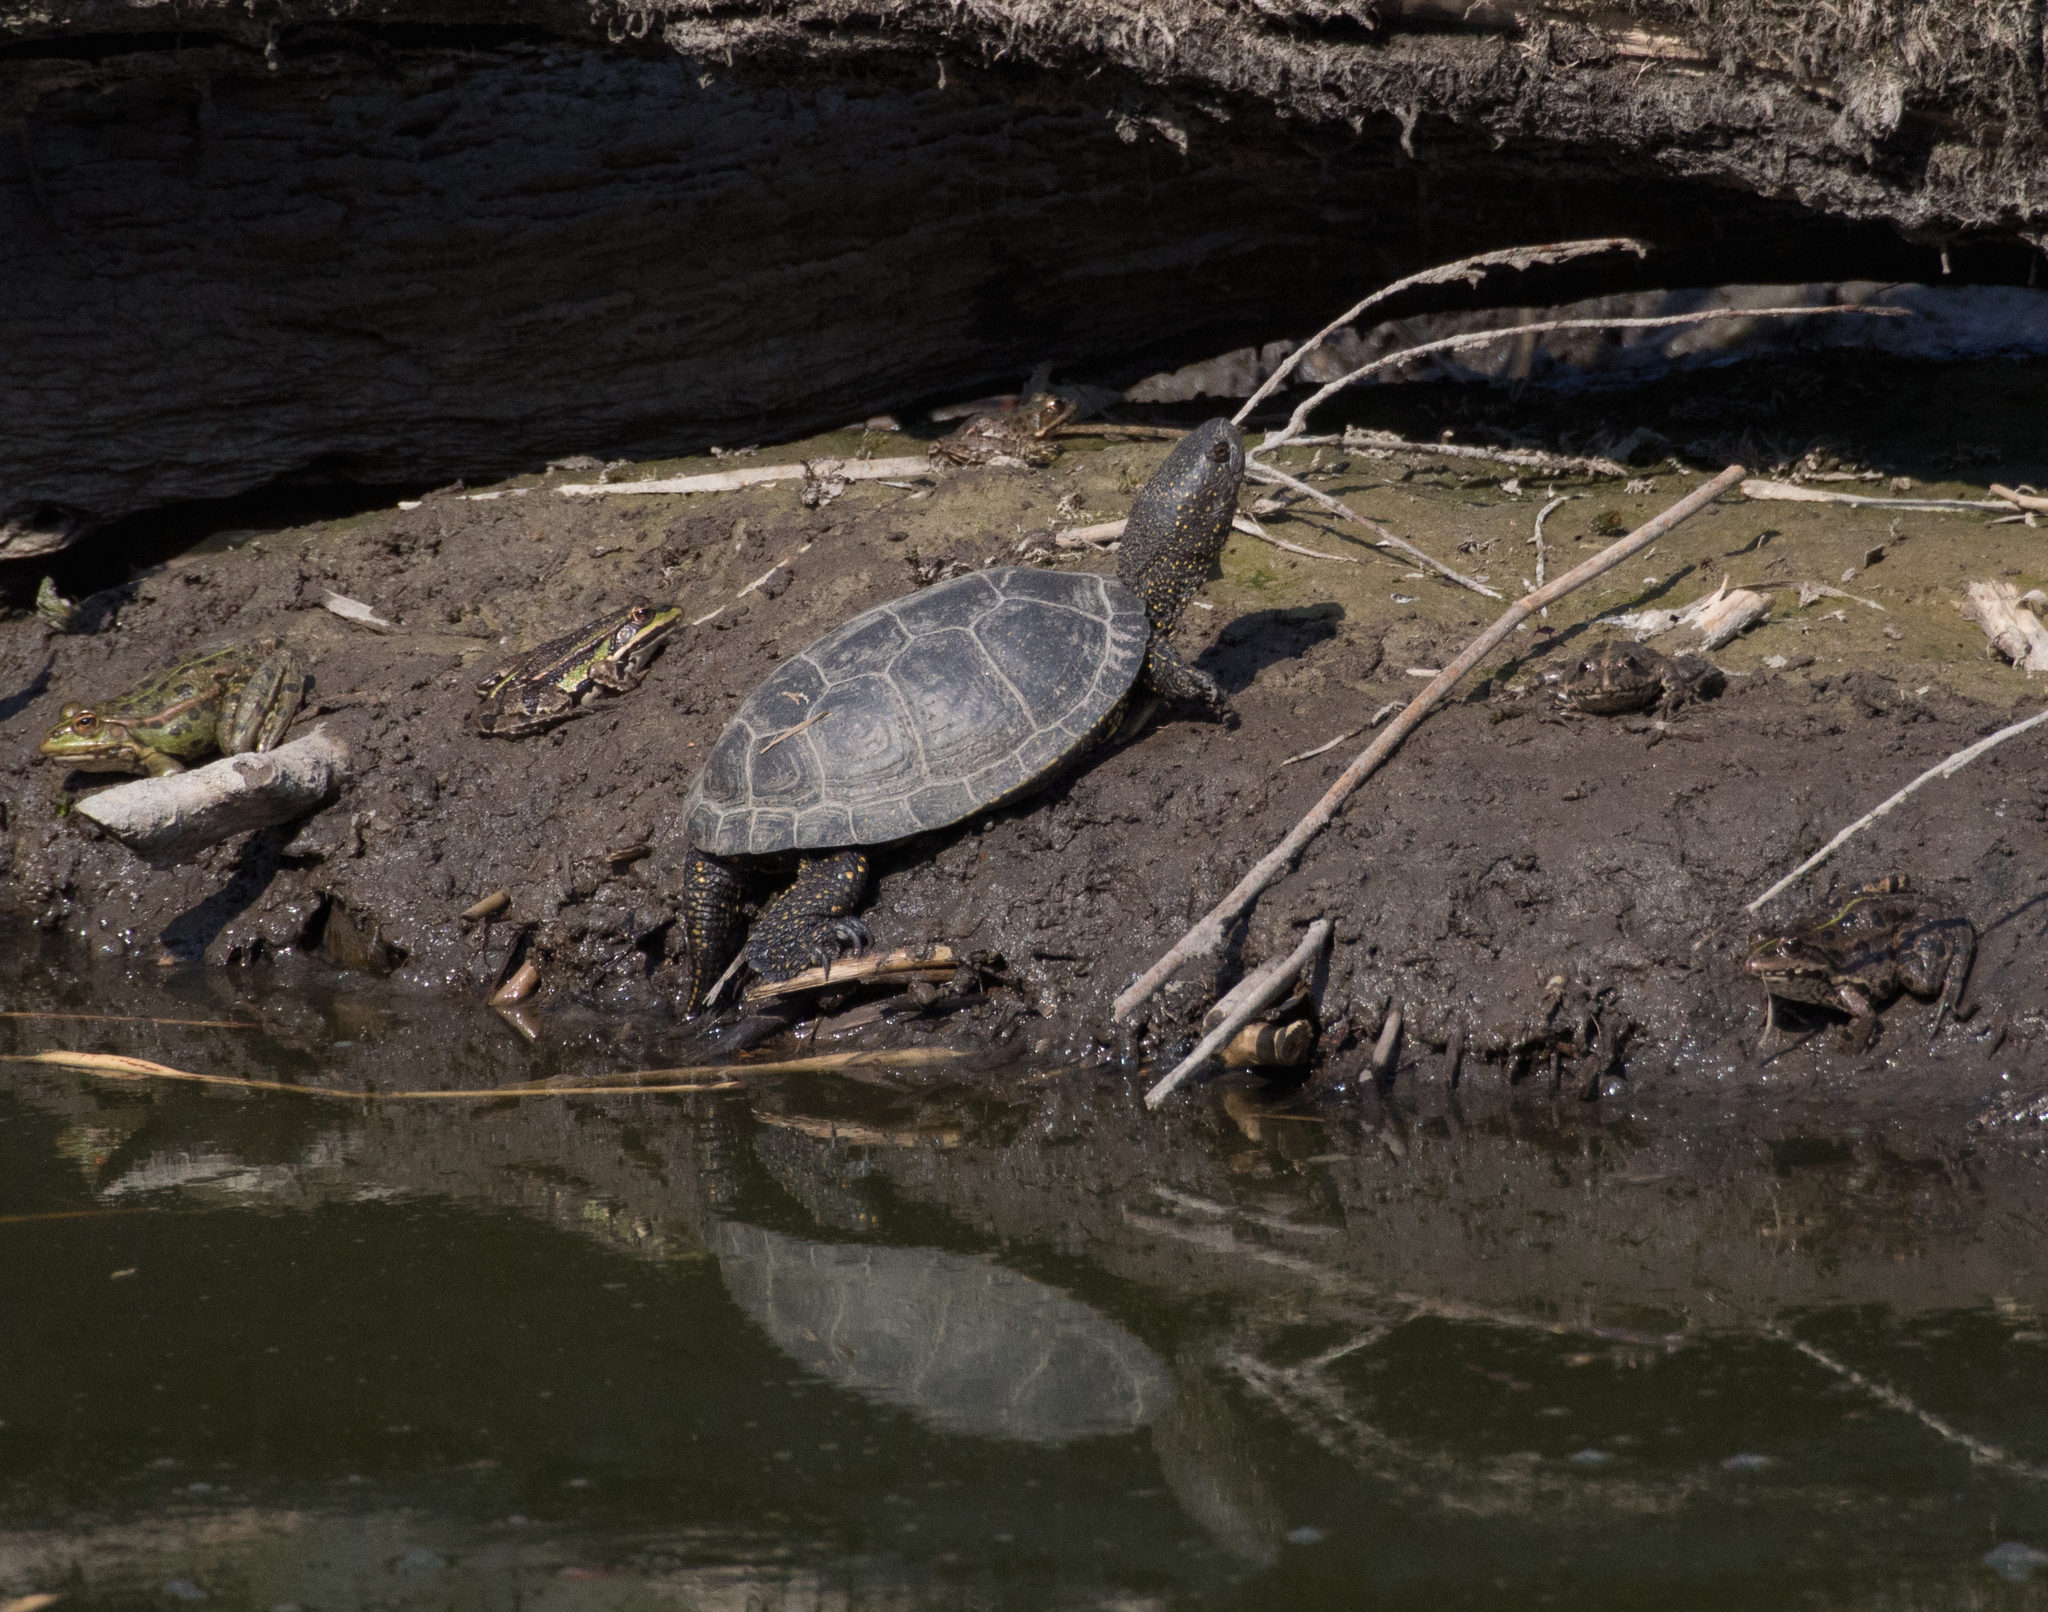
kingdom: Animalia
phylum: Chordata
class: Testudines
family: Emydidae
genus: Emys
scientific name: Emys orbicularis
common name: European pond turtle
